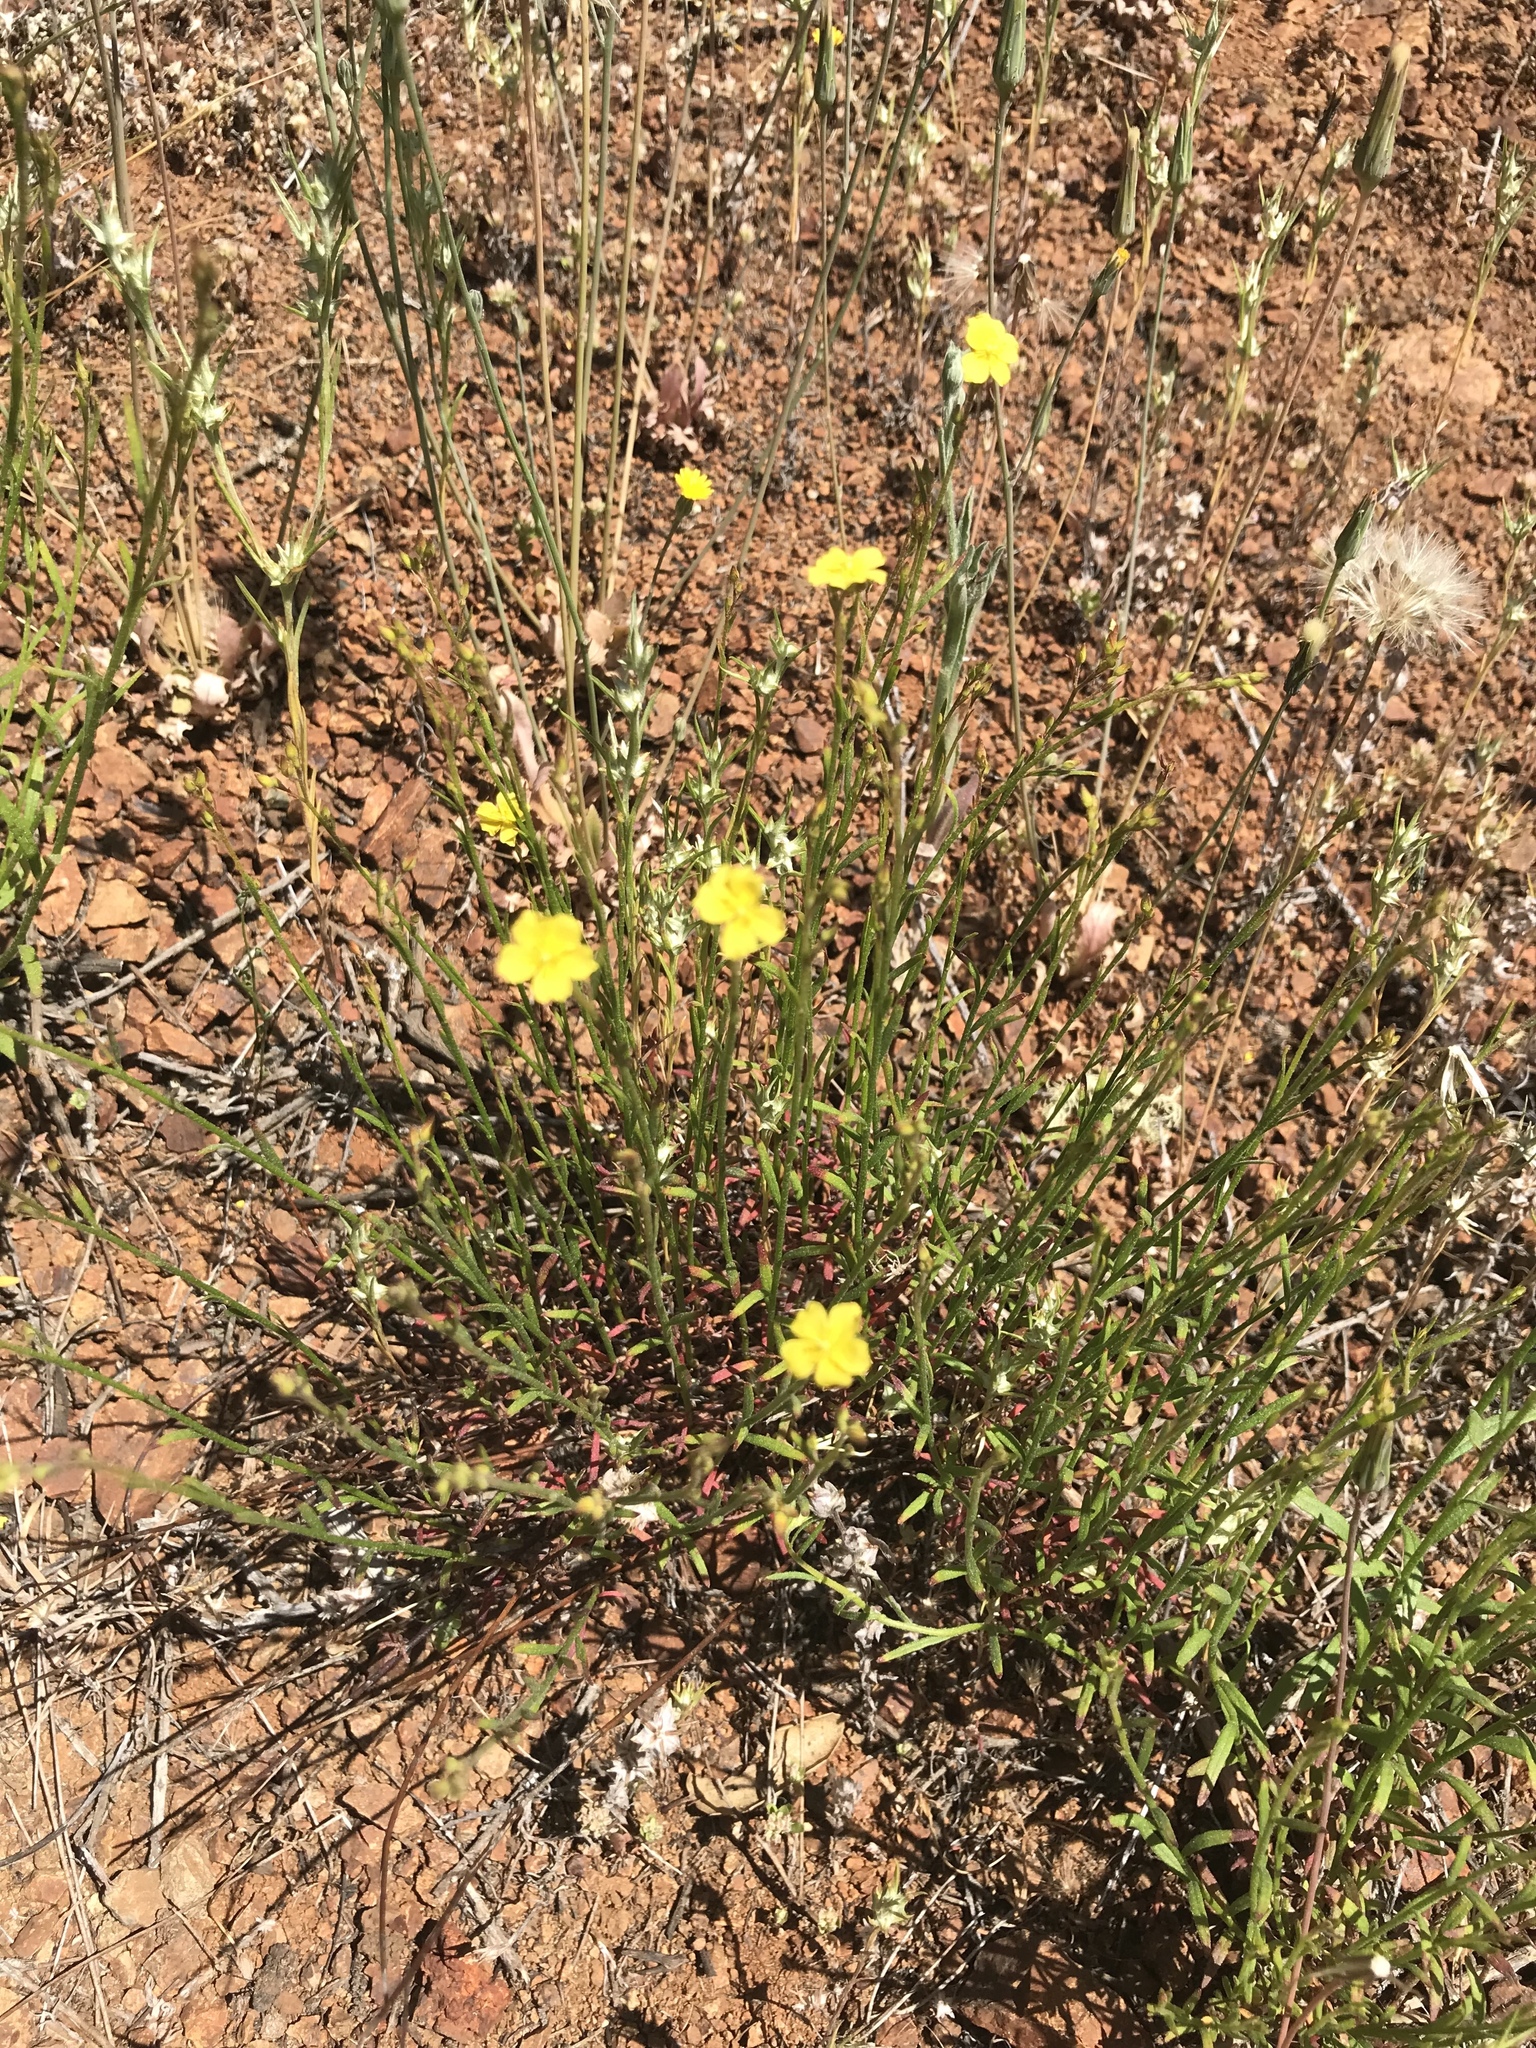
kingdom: Plantae
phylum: Tracheophyta
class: Magnoliopsida
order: Malvales
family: Cistaceae
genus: Crocanthemum
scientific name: Crocanthemum scoparium
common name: Broom-rose
